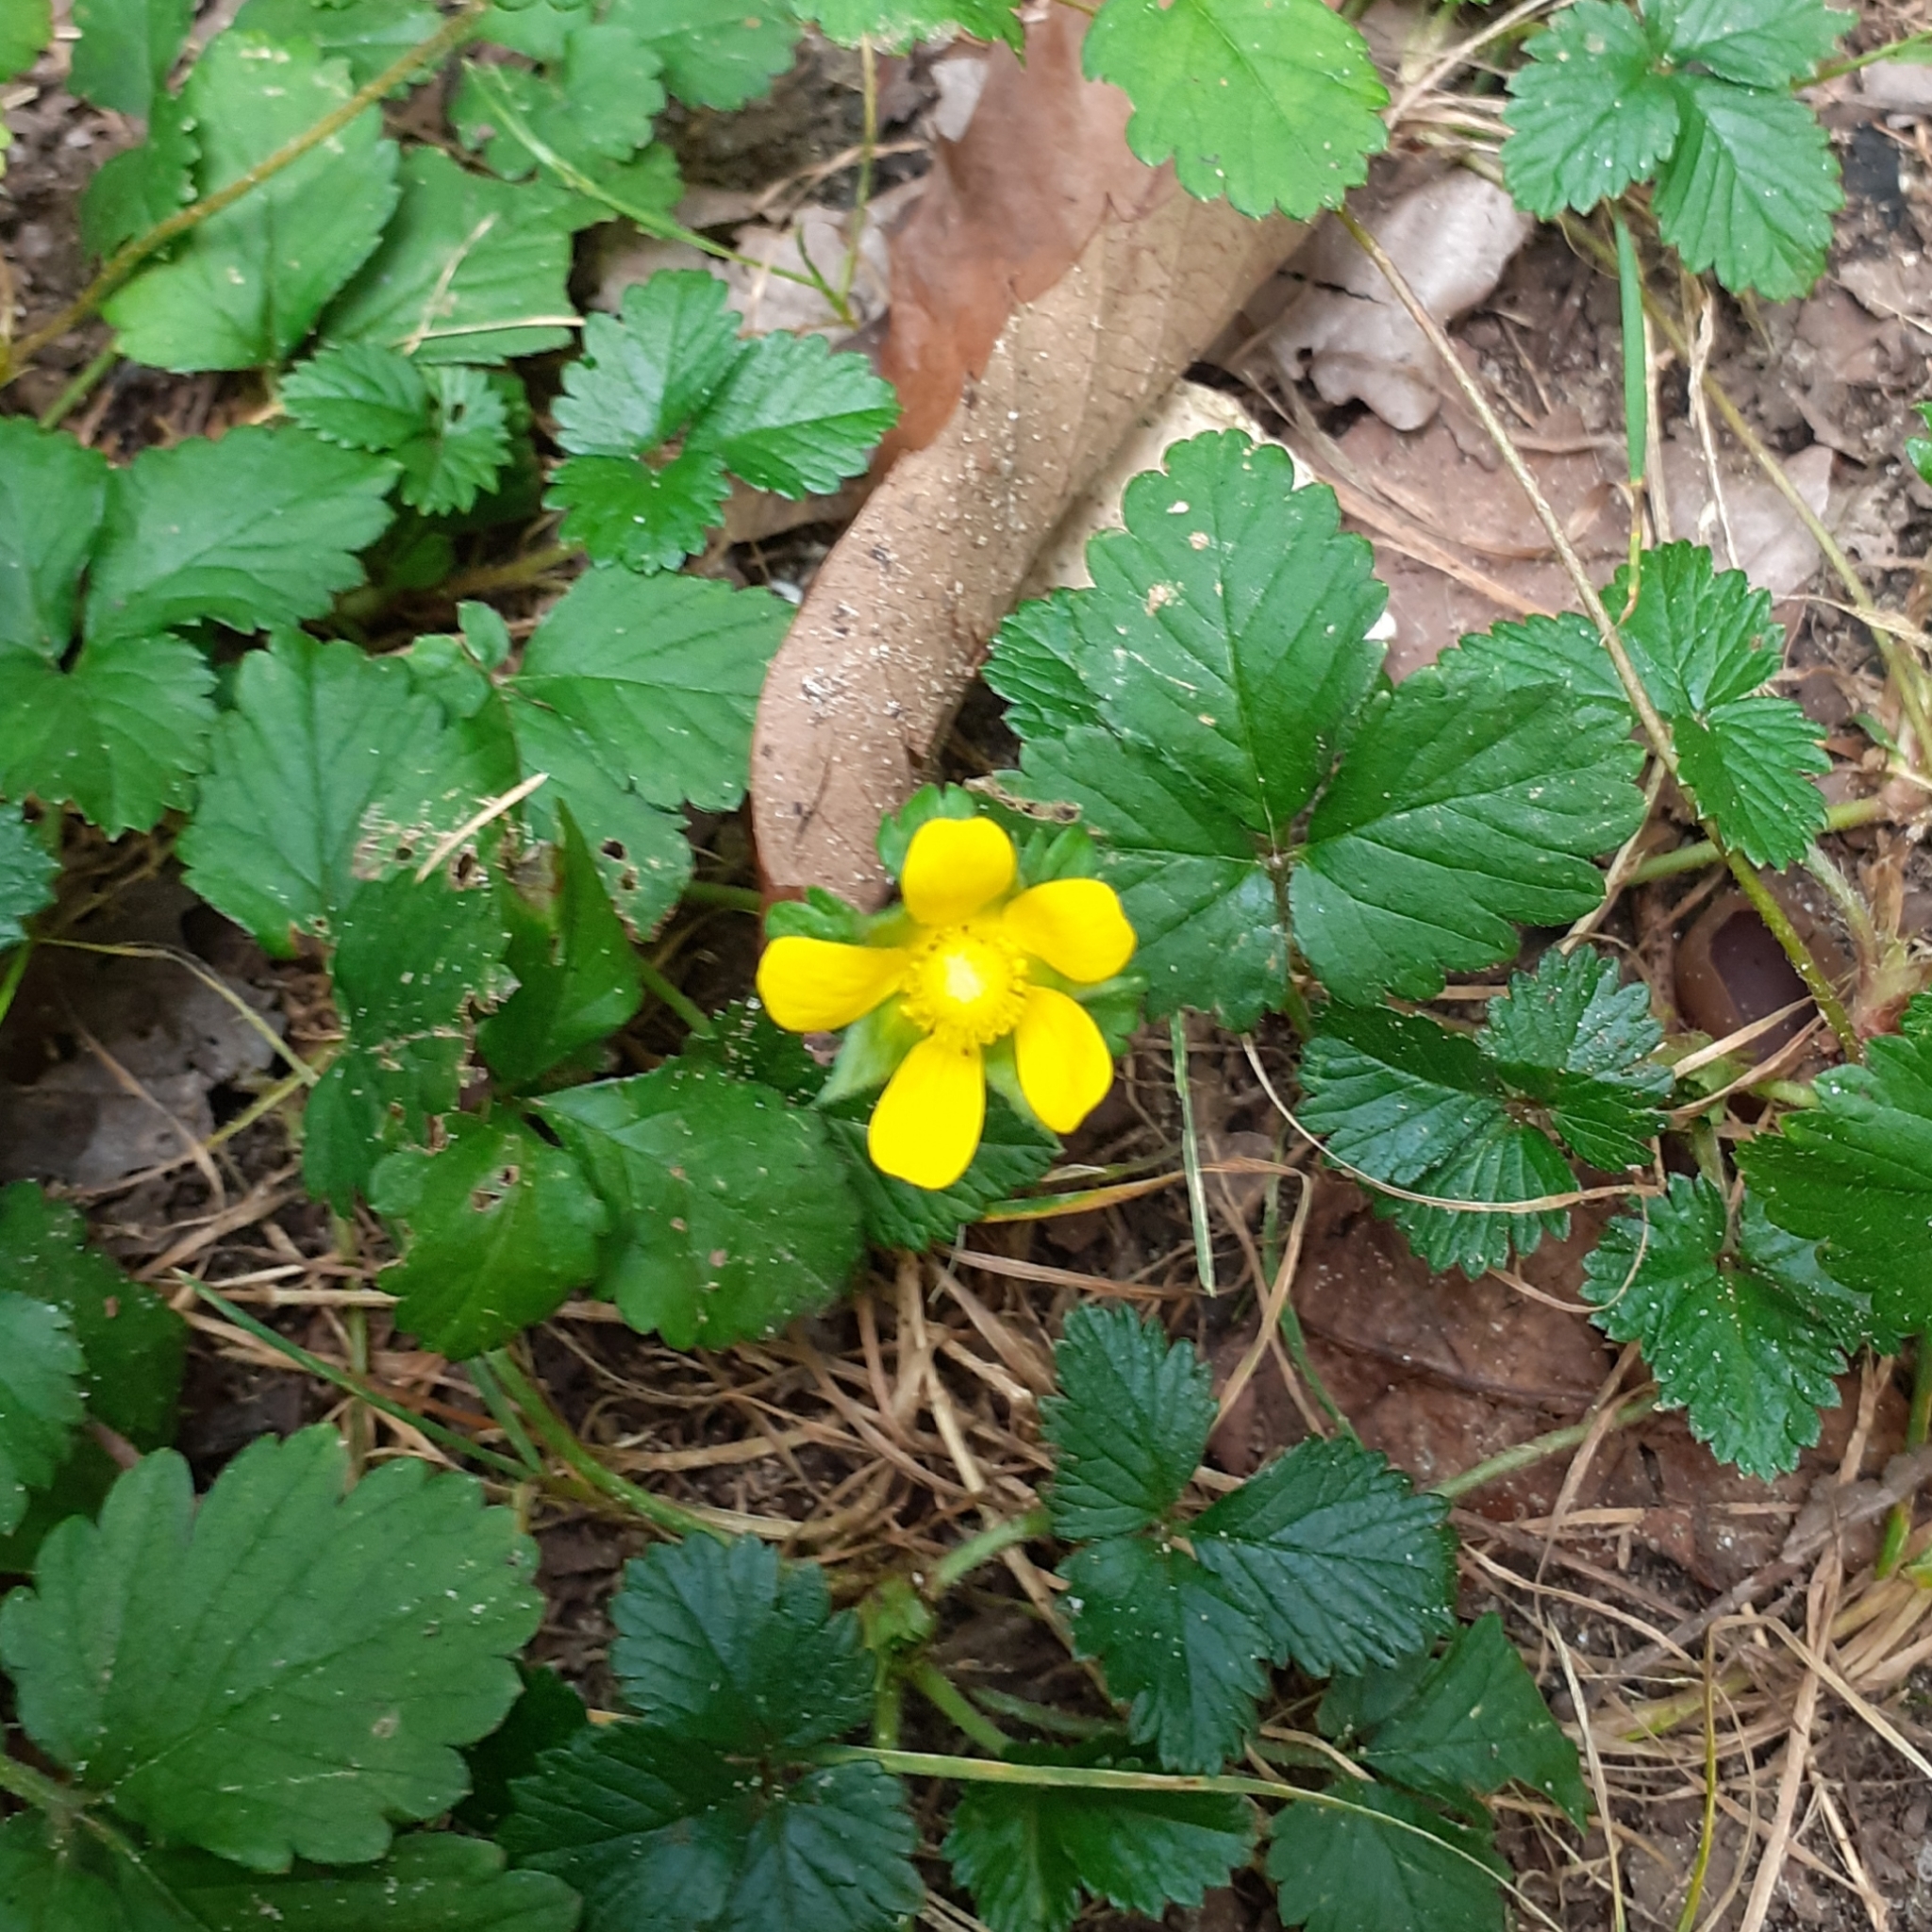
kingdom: Plantae
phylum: Tracheophyta
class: Magnoliopsida
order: Rosales
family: Rosaceae
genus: Potentilla
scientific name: Potentilla indica
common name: Yellow-flowered strawberry
